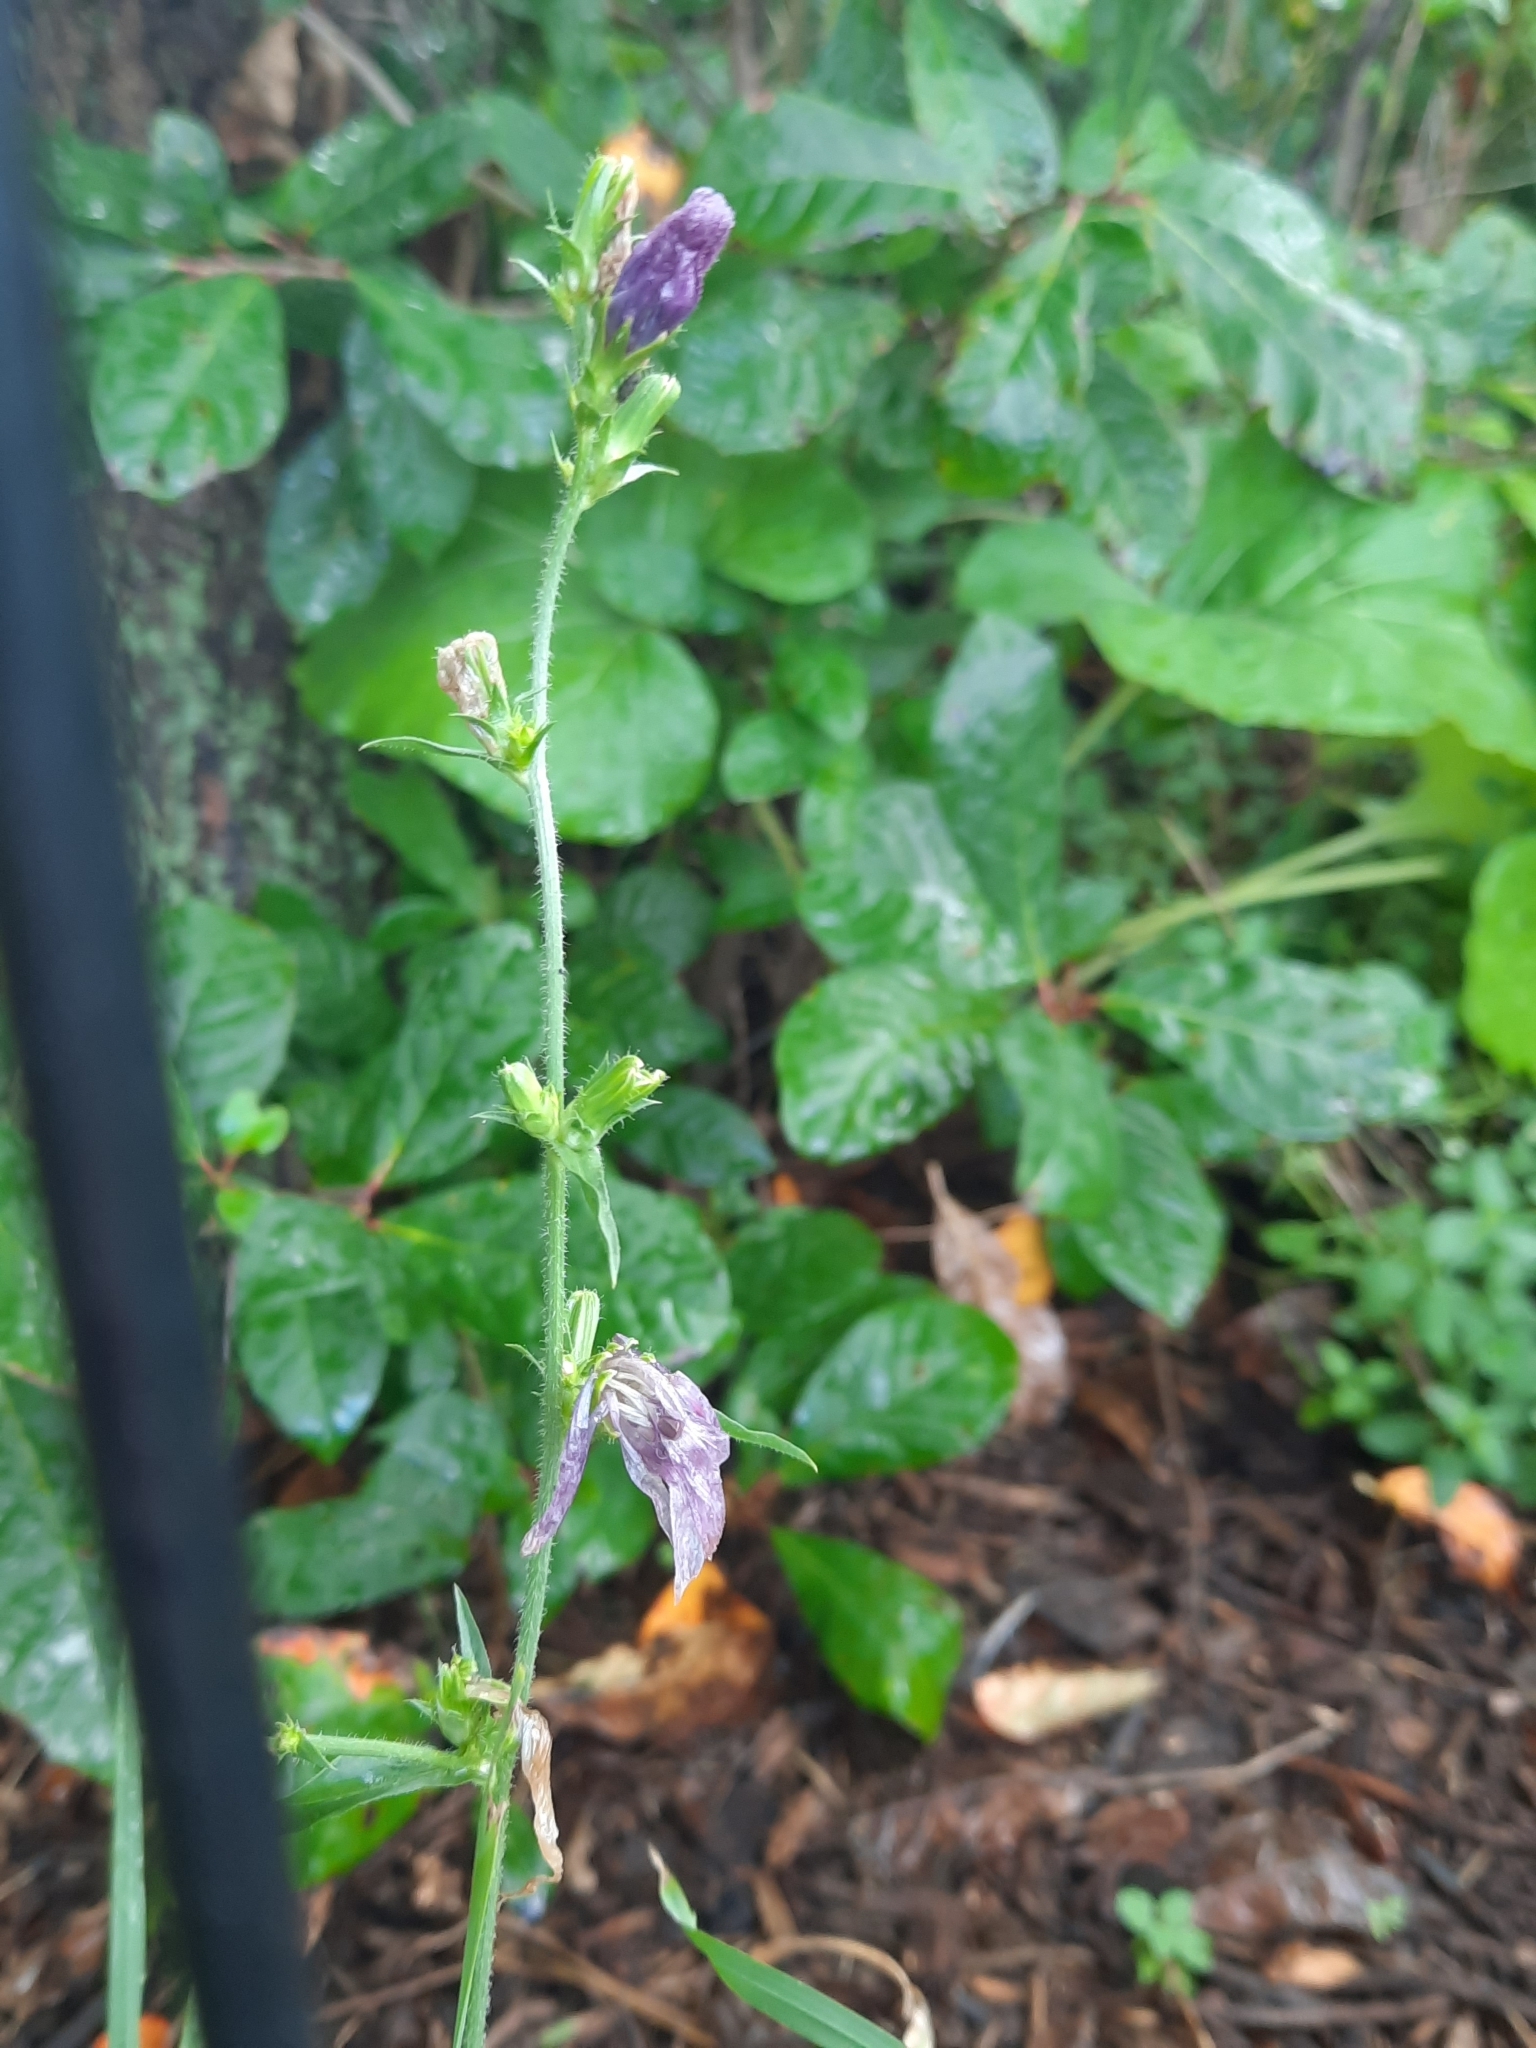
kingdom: Plantae
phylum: Tracheophyta
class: Magnoliopsida
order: Asterales
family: Asteraceae
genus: Cichorium
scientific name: Cichorium intybus
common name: Chicory
